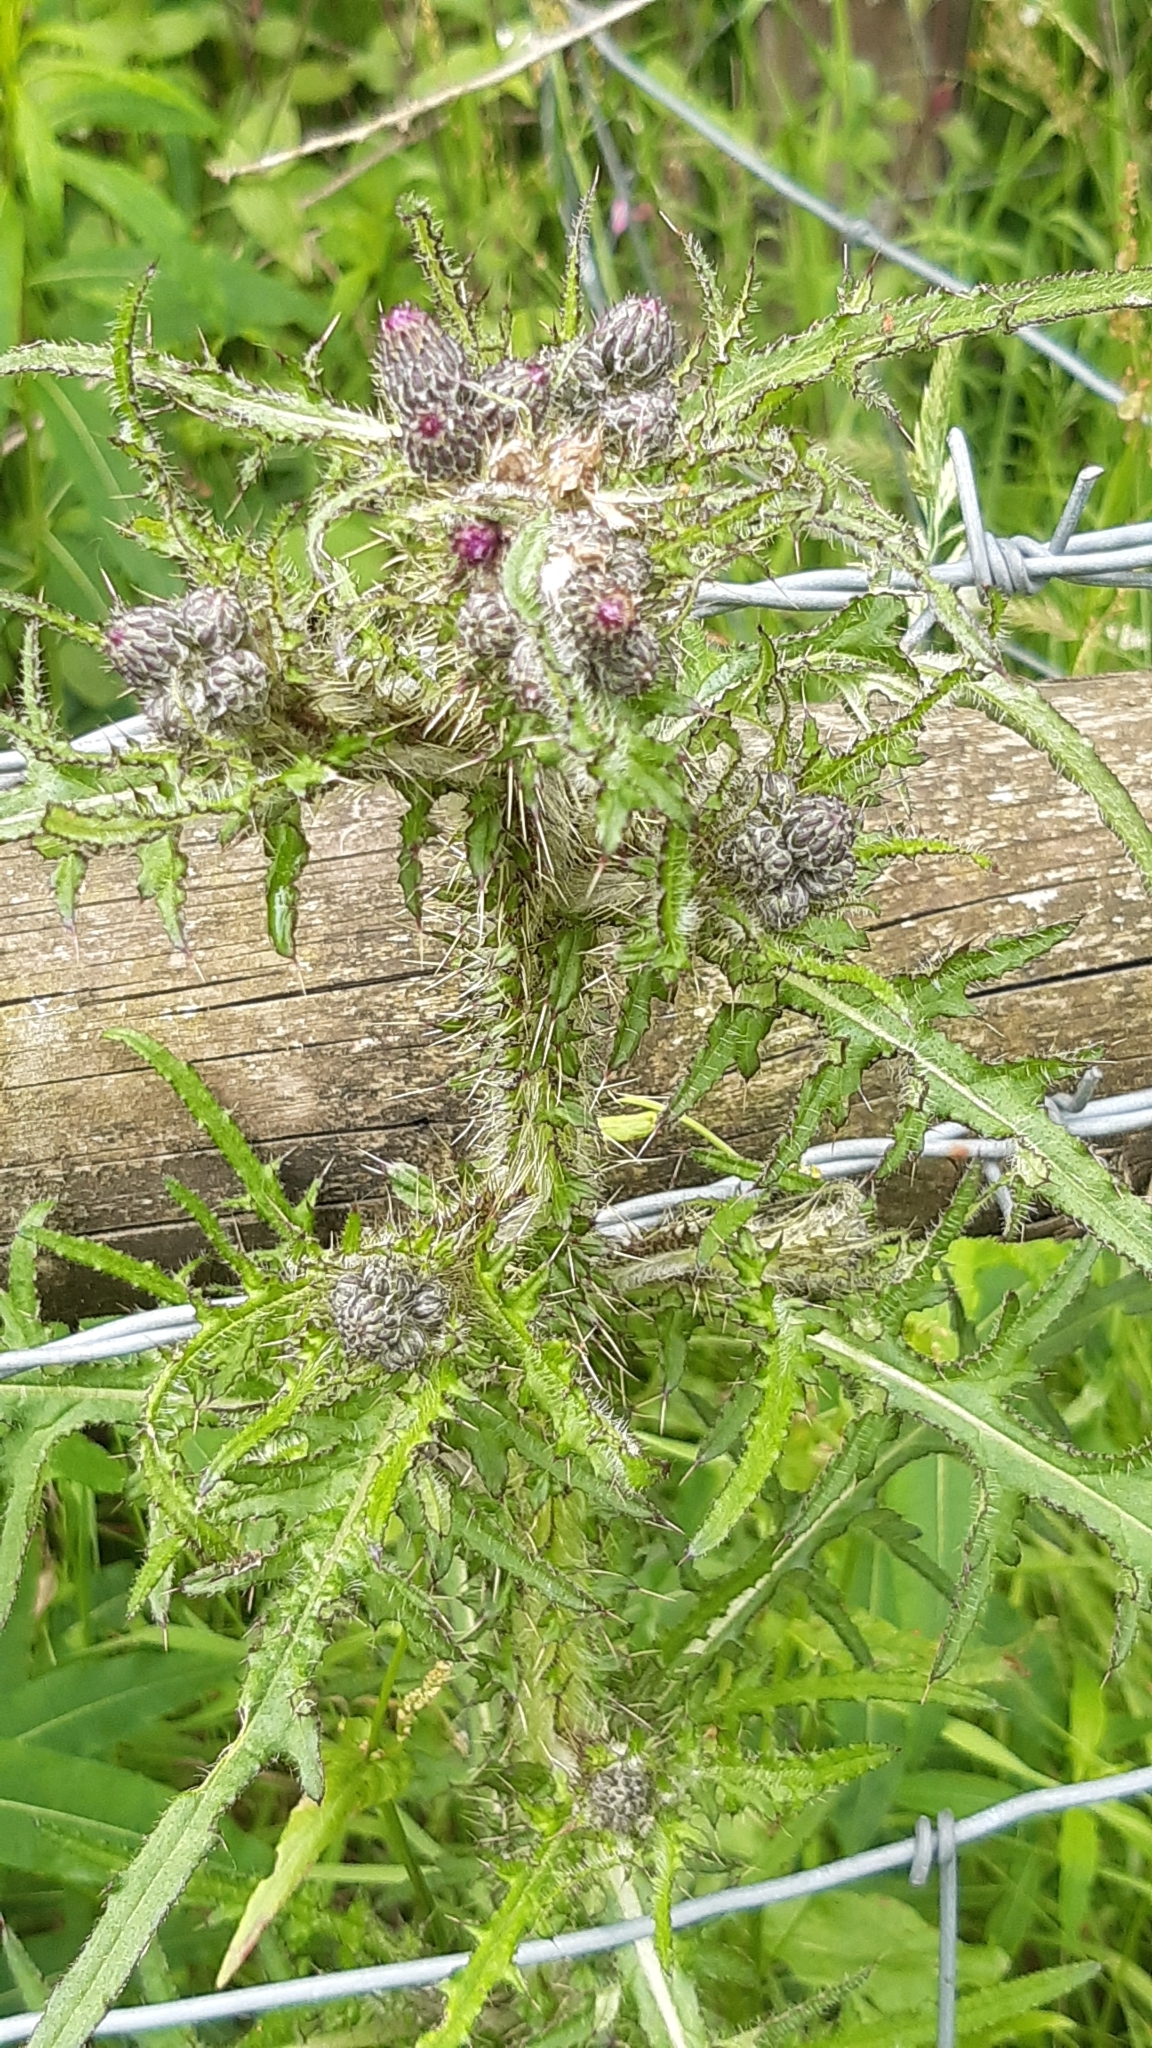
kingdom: Plantae
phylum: Tracheophyta
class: Magnoliopsida
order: Asterales
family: Asteraceae
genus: Cirsium
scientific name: Cirsium palustre
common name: Marsh thistle
